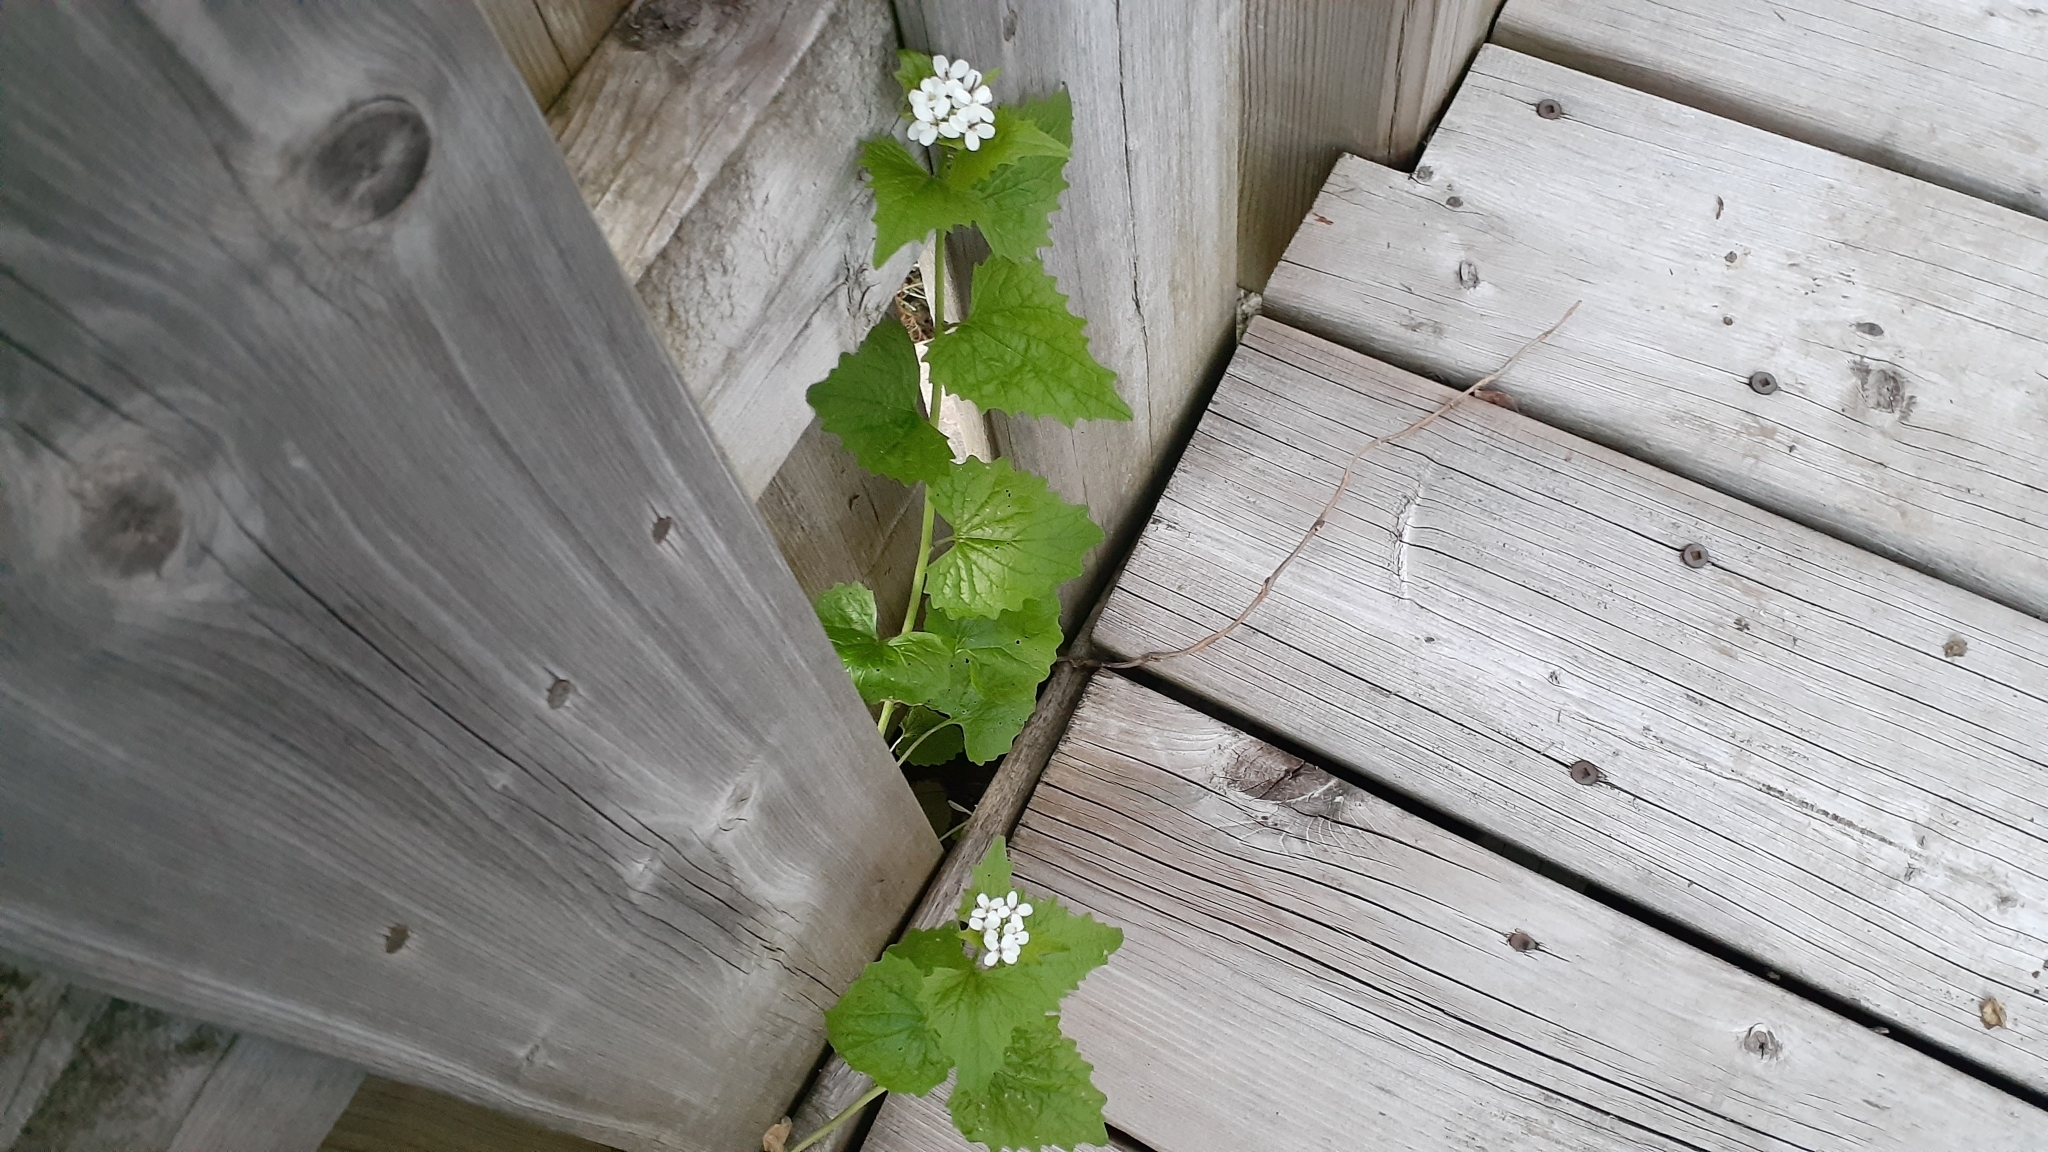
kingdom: Plantae
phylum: Tracheophyta
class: Magnoliopsida
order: Brassicales
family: Brassicaceae
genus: Alliaria
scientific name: Alliaria petiolata
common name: Garlic mustard
